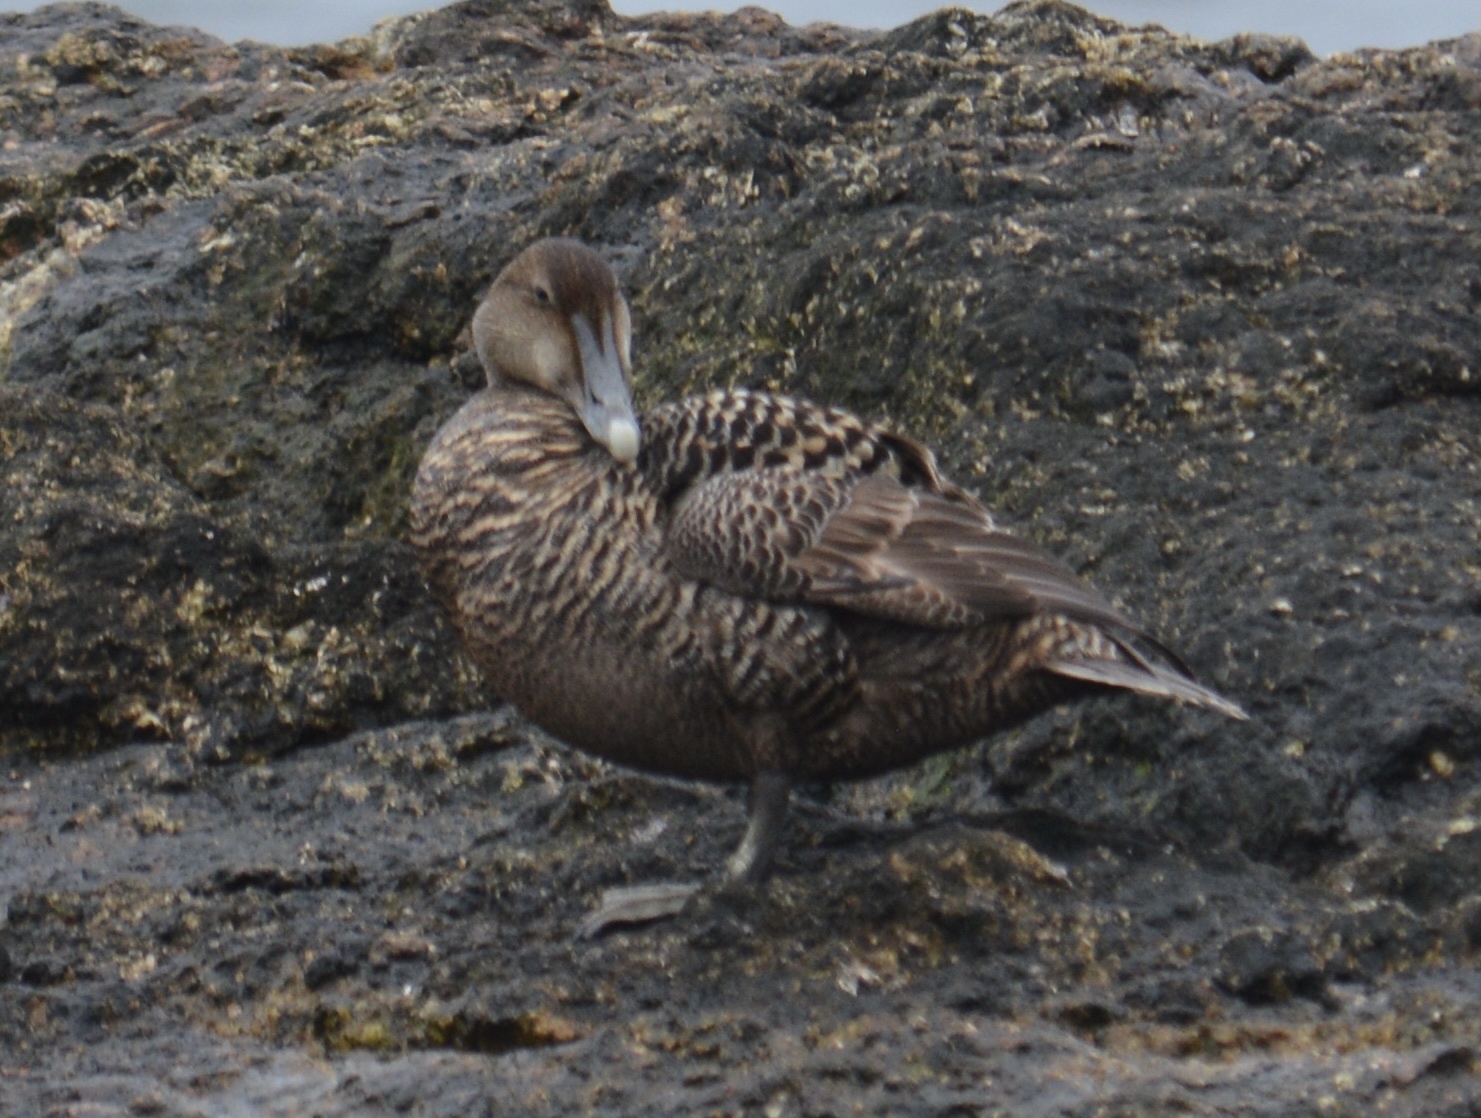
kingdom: Animalia
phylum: Chordata
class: Aves
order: Anseriformes
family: Anatidae
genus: Somateria
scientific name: Somateria mollissima
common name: Common eider
